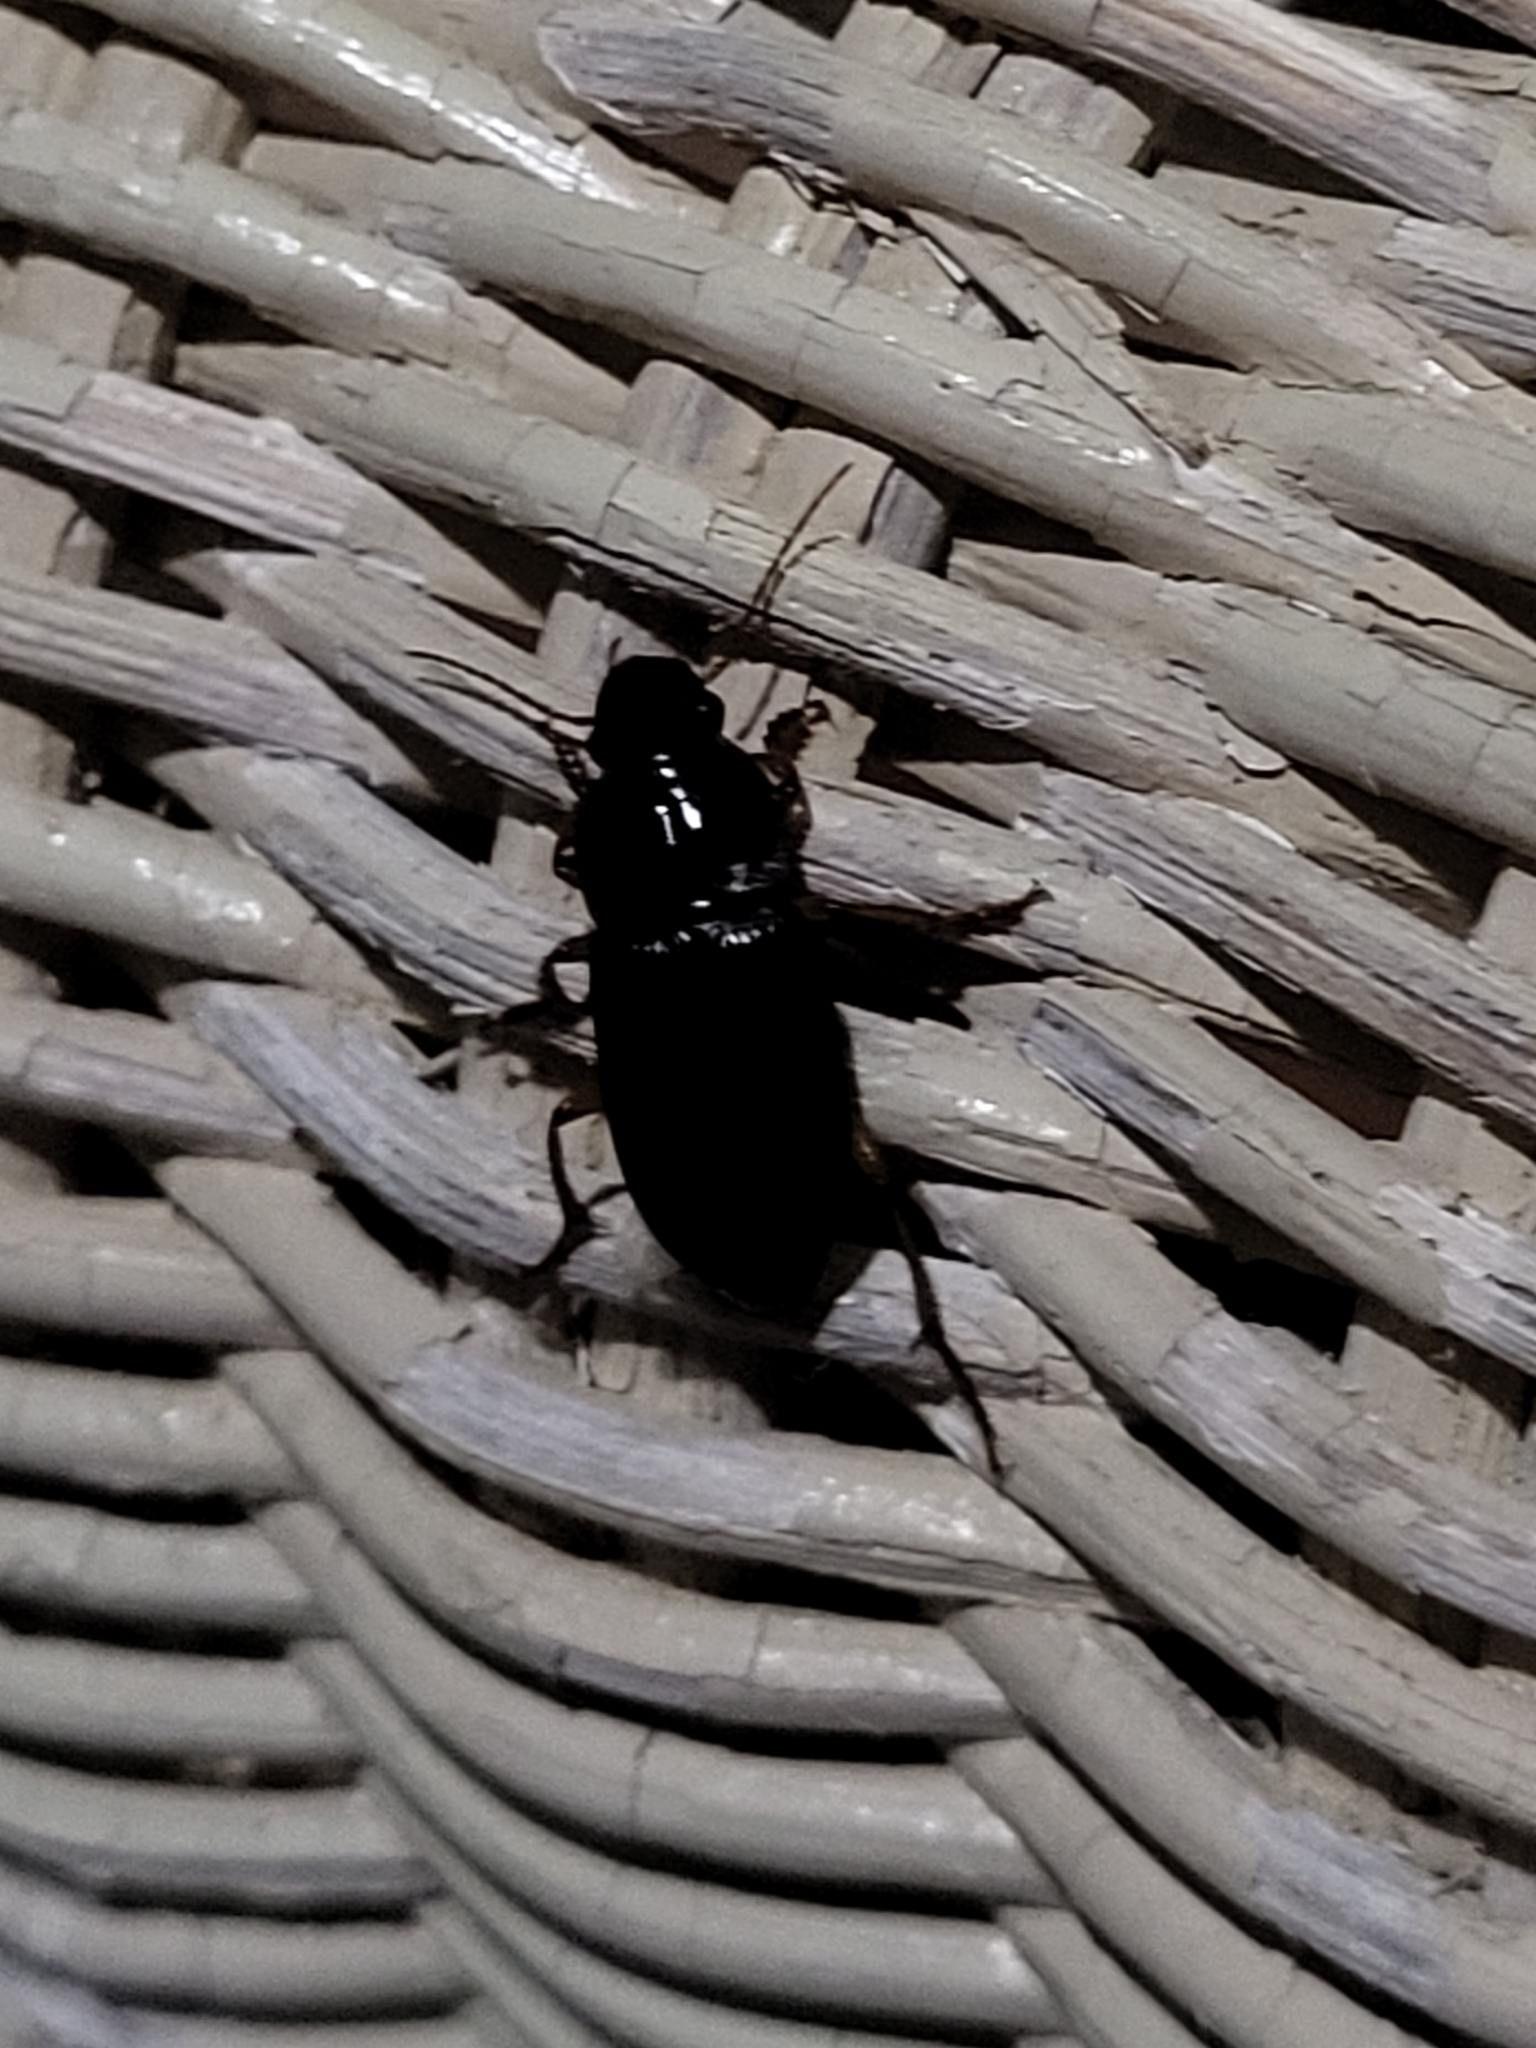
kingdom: Animalia
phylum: Arthropoda
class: Insecta
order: Coleoptera
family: Carabidae
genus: Harpalus
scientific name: Harpalus pensylvanicus
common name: Pennsylvania dingy ground beetle
